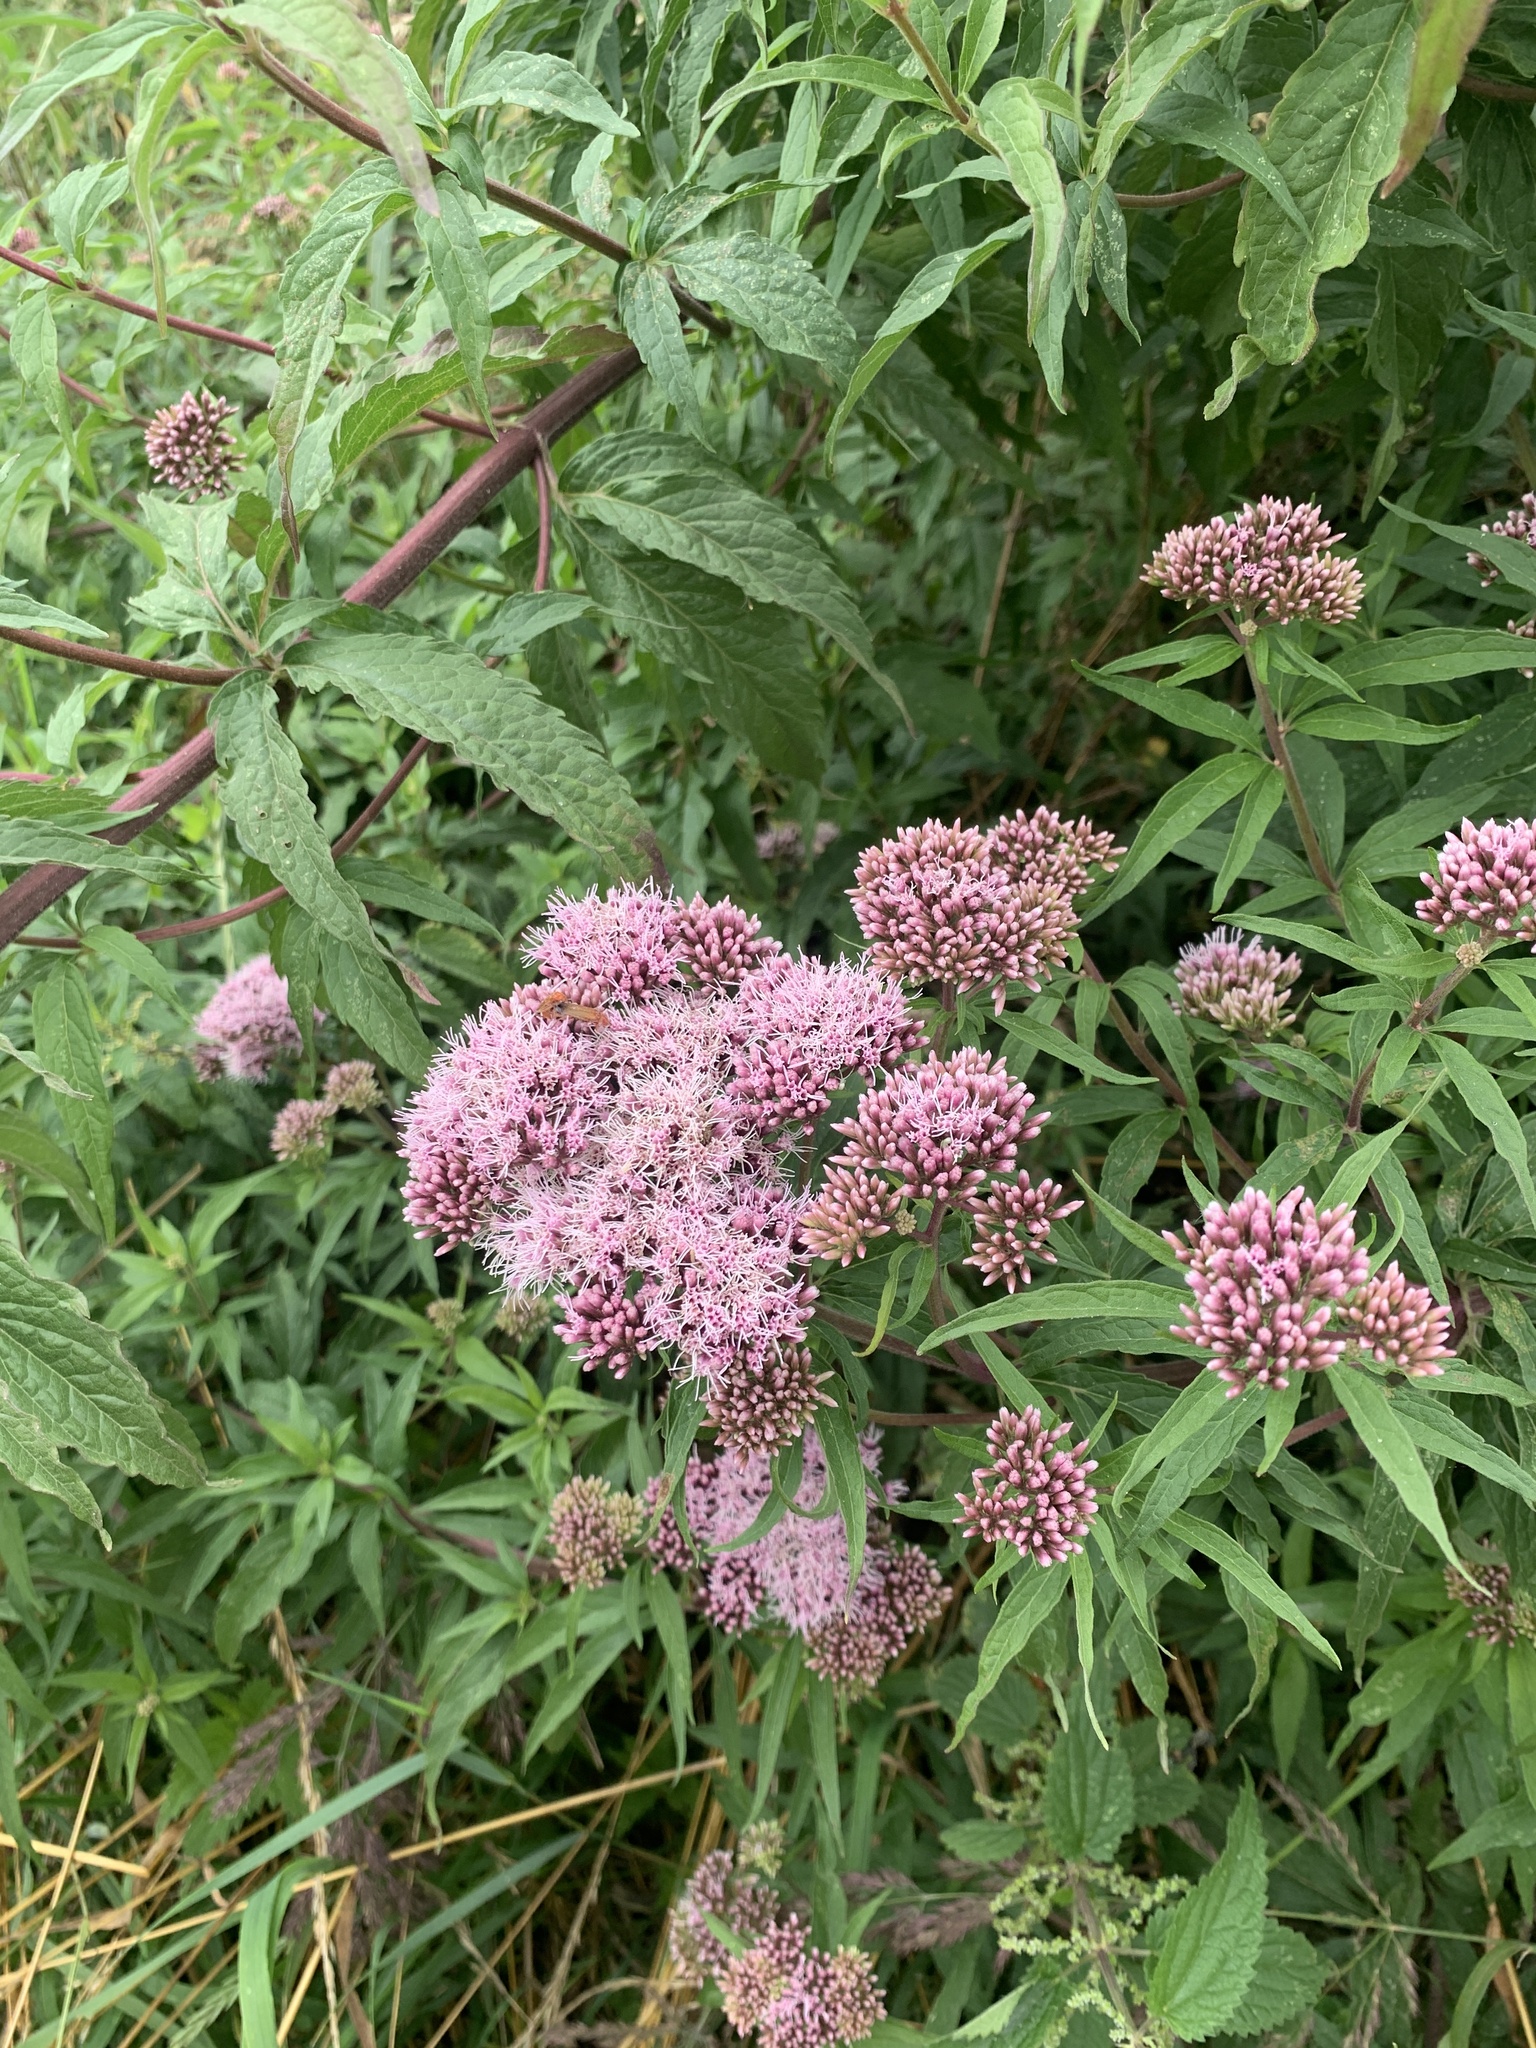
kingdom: Plantae
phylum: Tracheophyta
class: Magnoliopsida
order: Asterales
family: Asteraceae
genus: Eupatorium
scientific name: Eupatorium cannabinum
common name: Hemp-agrimony
